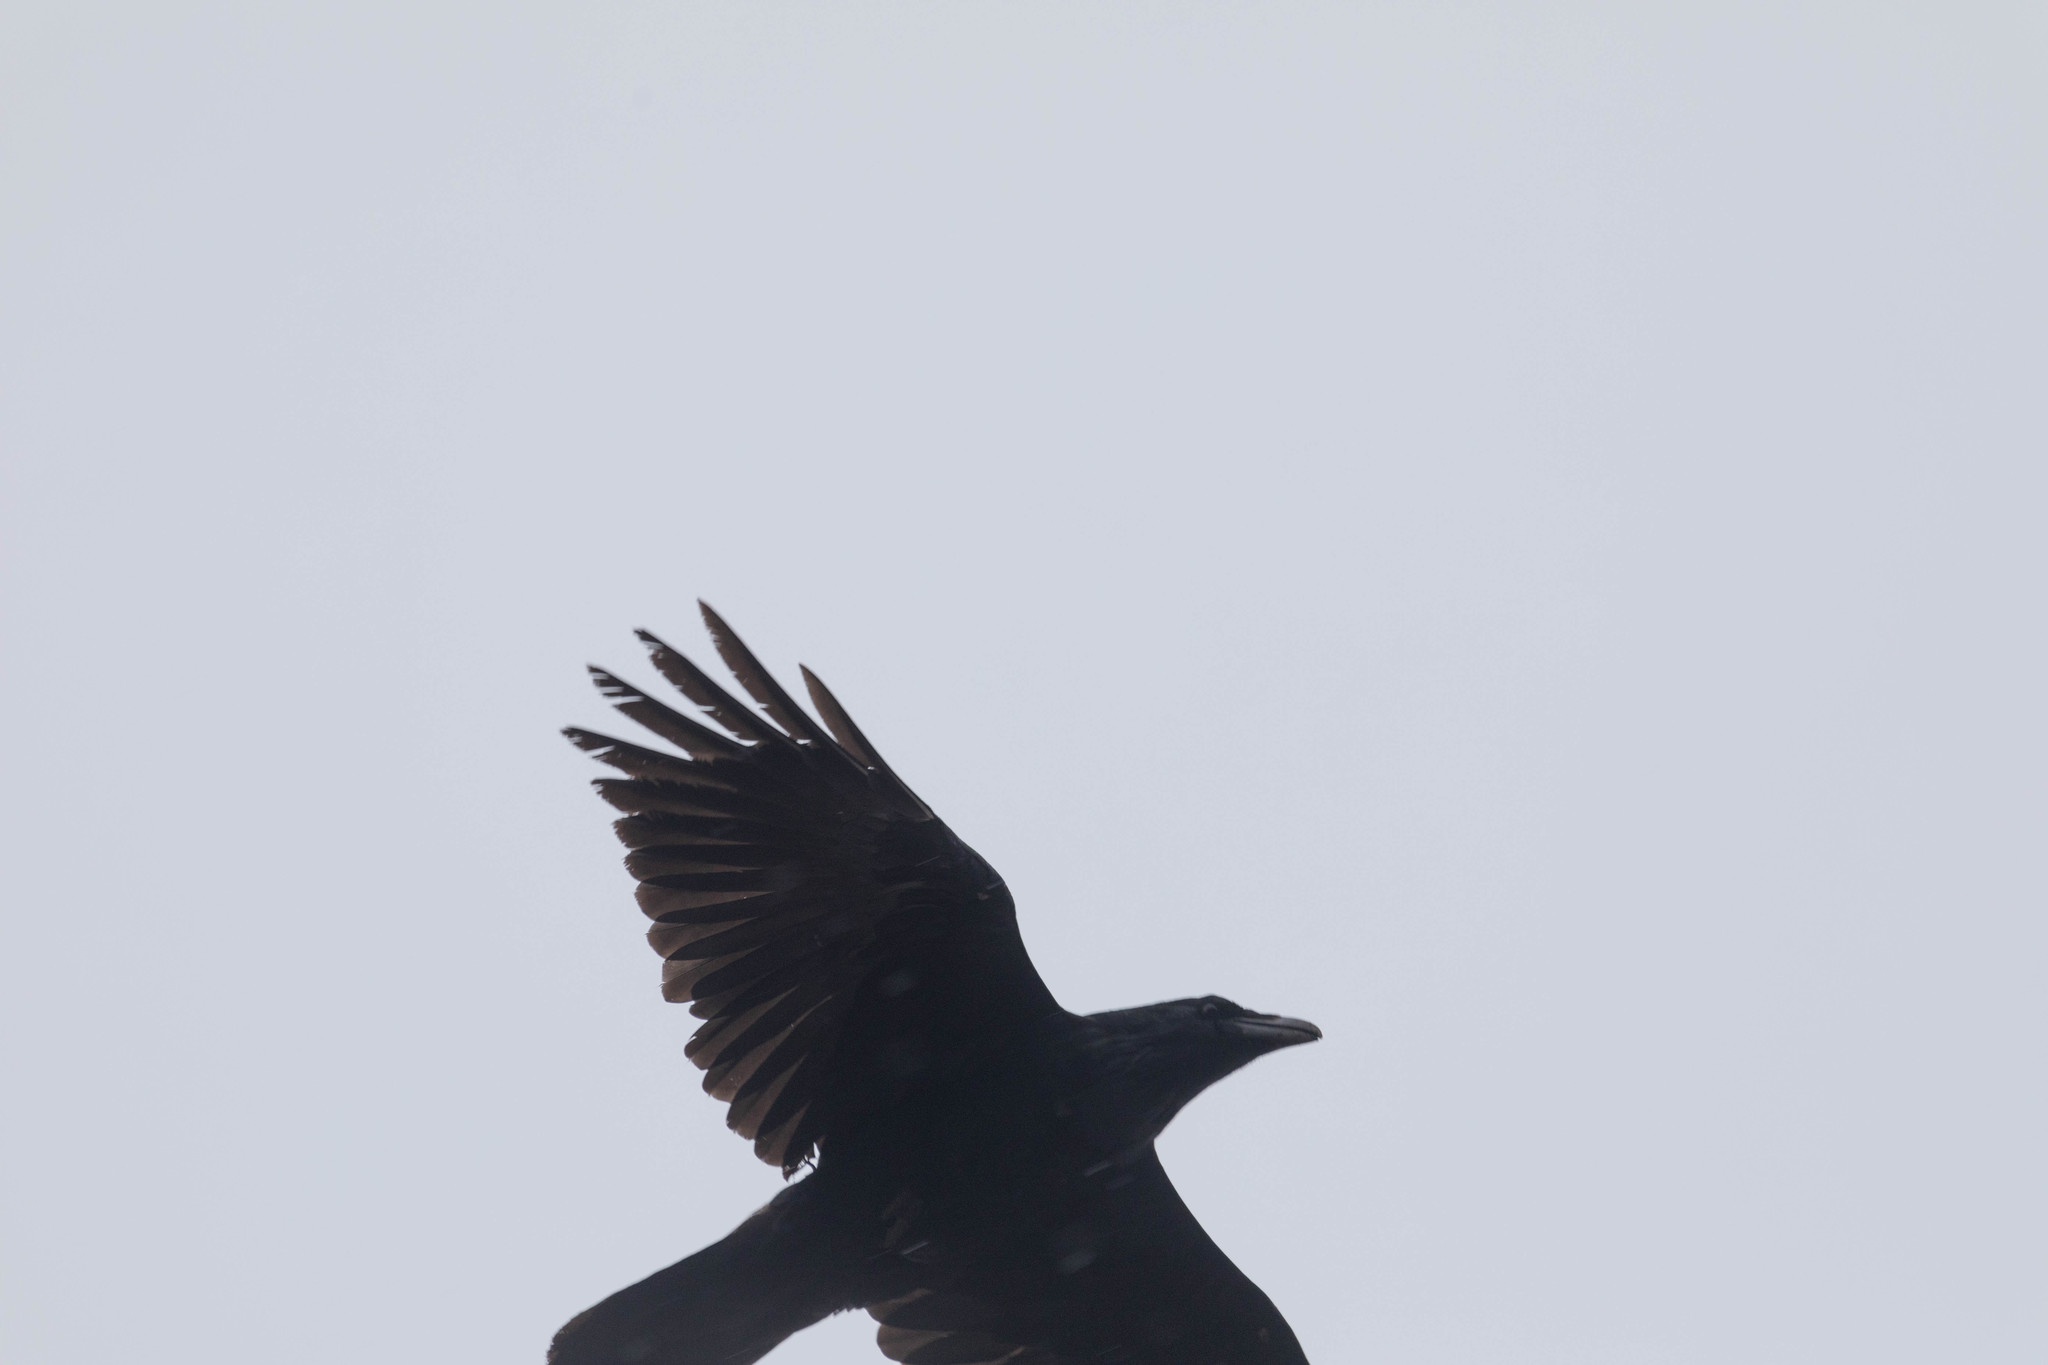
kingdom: Animalia
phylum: Chordata
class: Aves
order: Passeriformes
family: Corvidae
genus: Corvus
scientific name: Corvus corax
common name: Common raven
